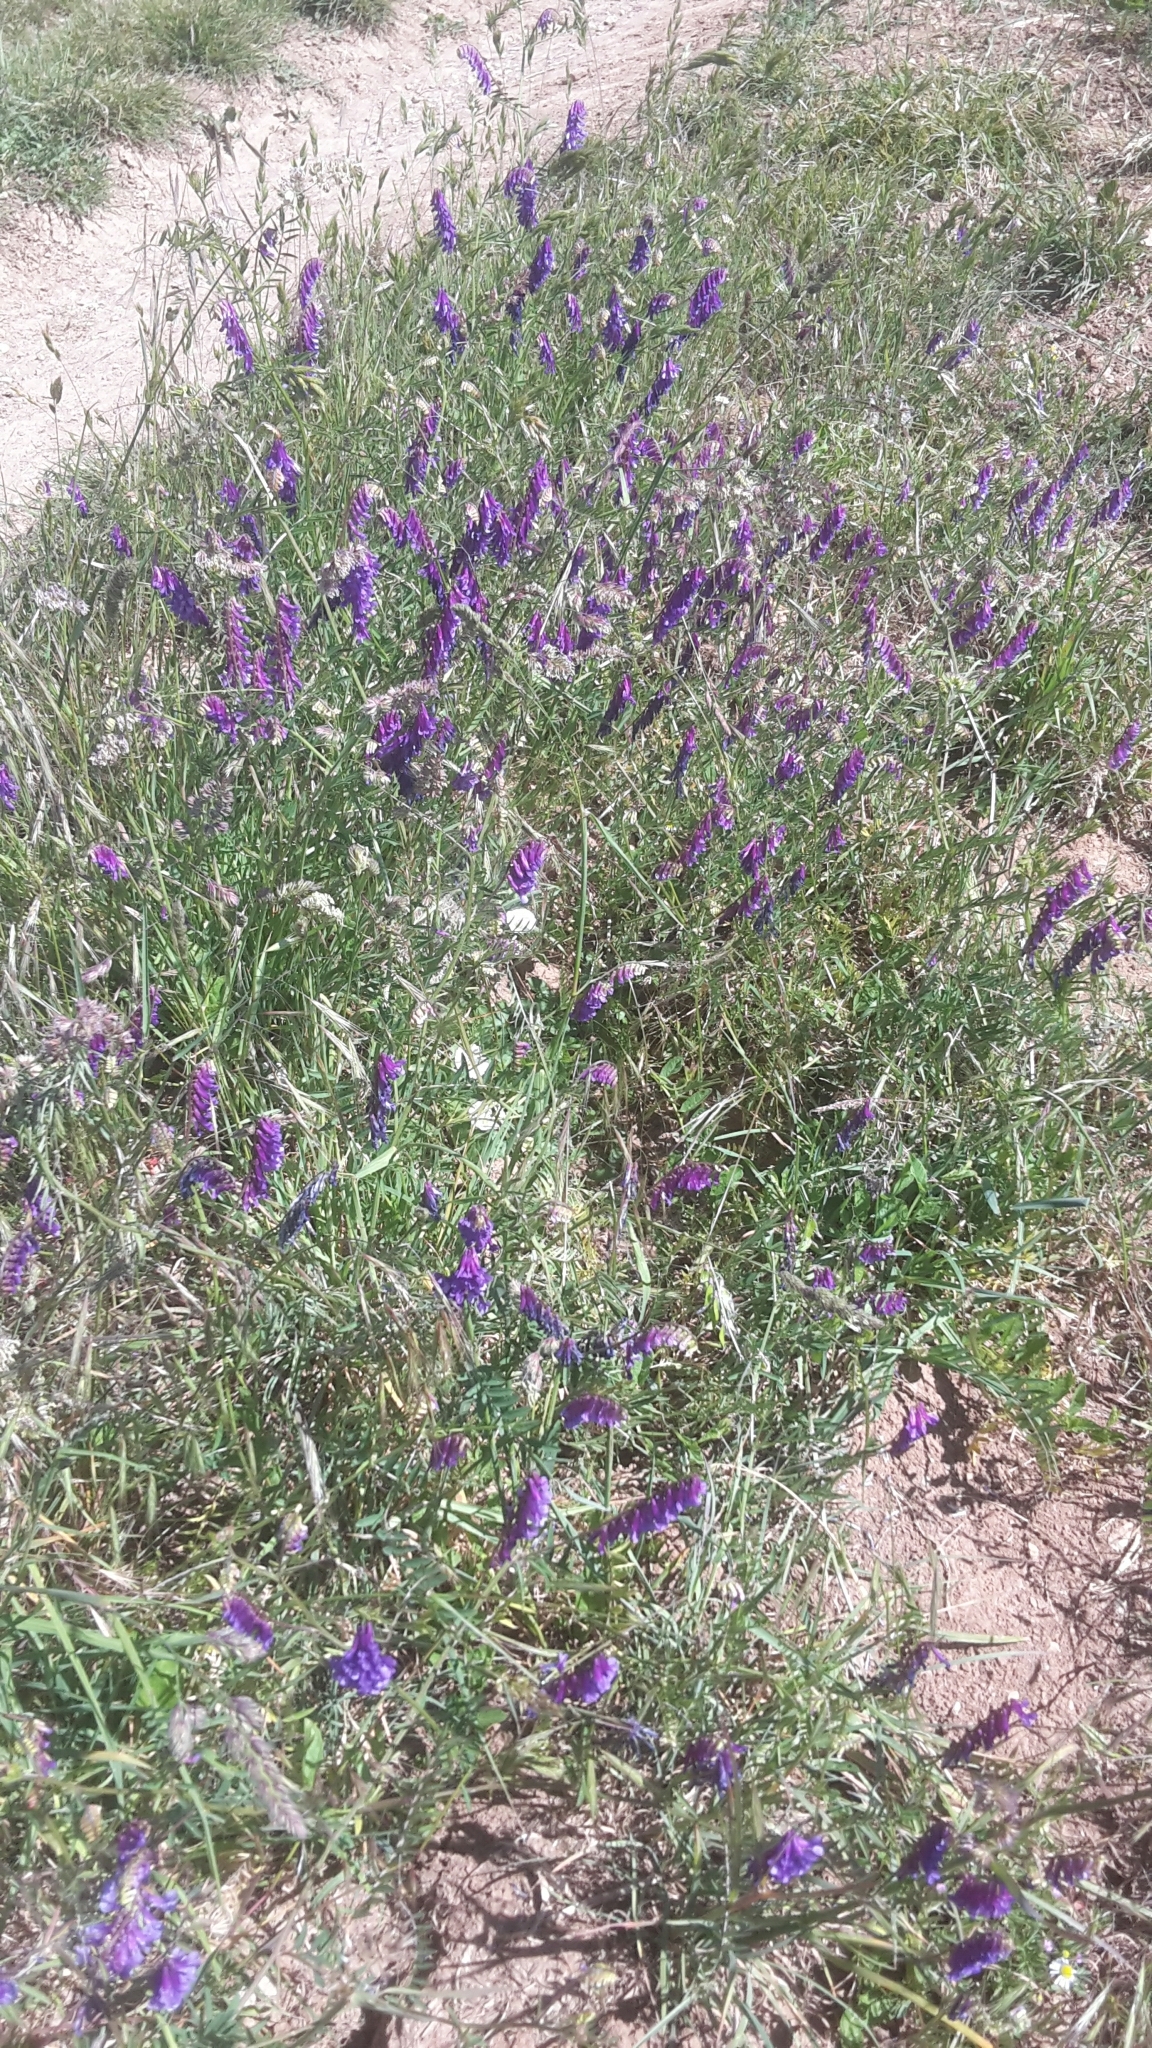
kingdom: Plantae
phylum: Tracheophyta
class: Magnoliopsida
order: Fabales
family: Fabaceae
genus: Vicia
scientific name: Vicia villosa
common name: Fodder vetch
